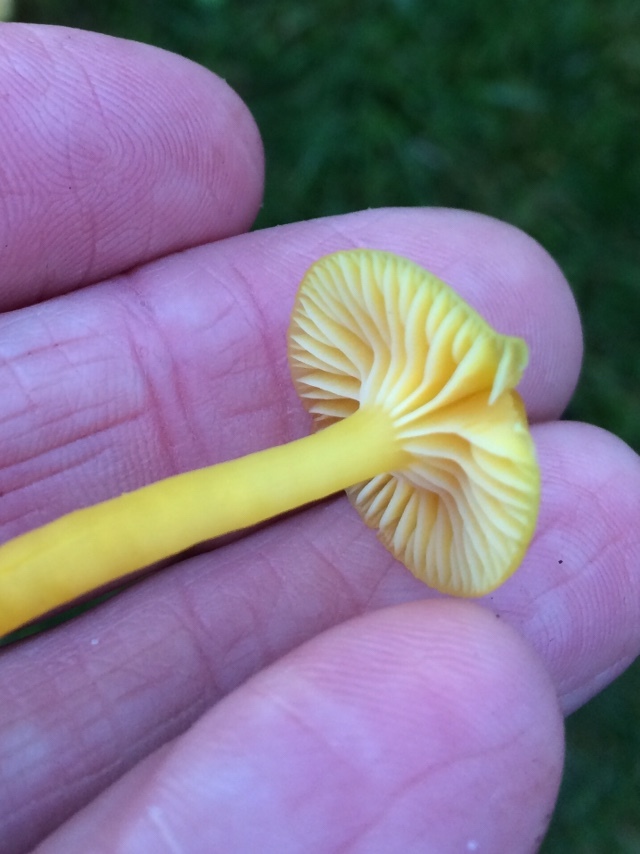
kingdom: Fungi
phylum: Basidiomycota
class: Agaricomycetes
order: Agaricales
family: Hygrophoraceae
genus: Hygrocybe
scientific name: Hygrocybe ceracea
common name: Butter waxcap
